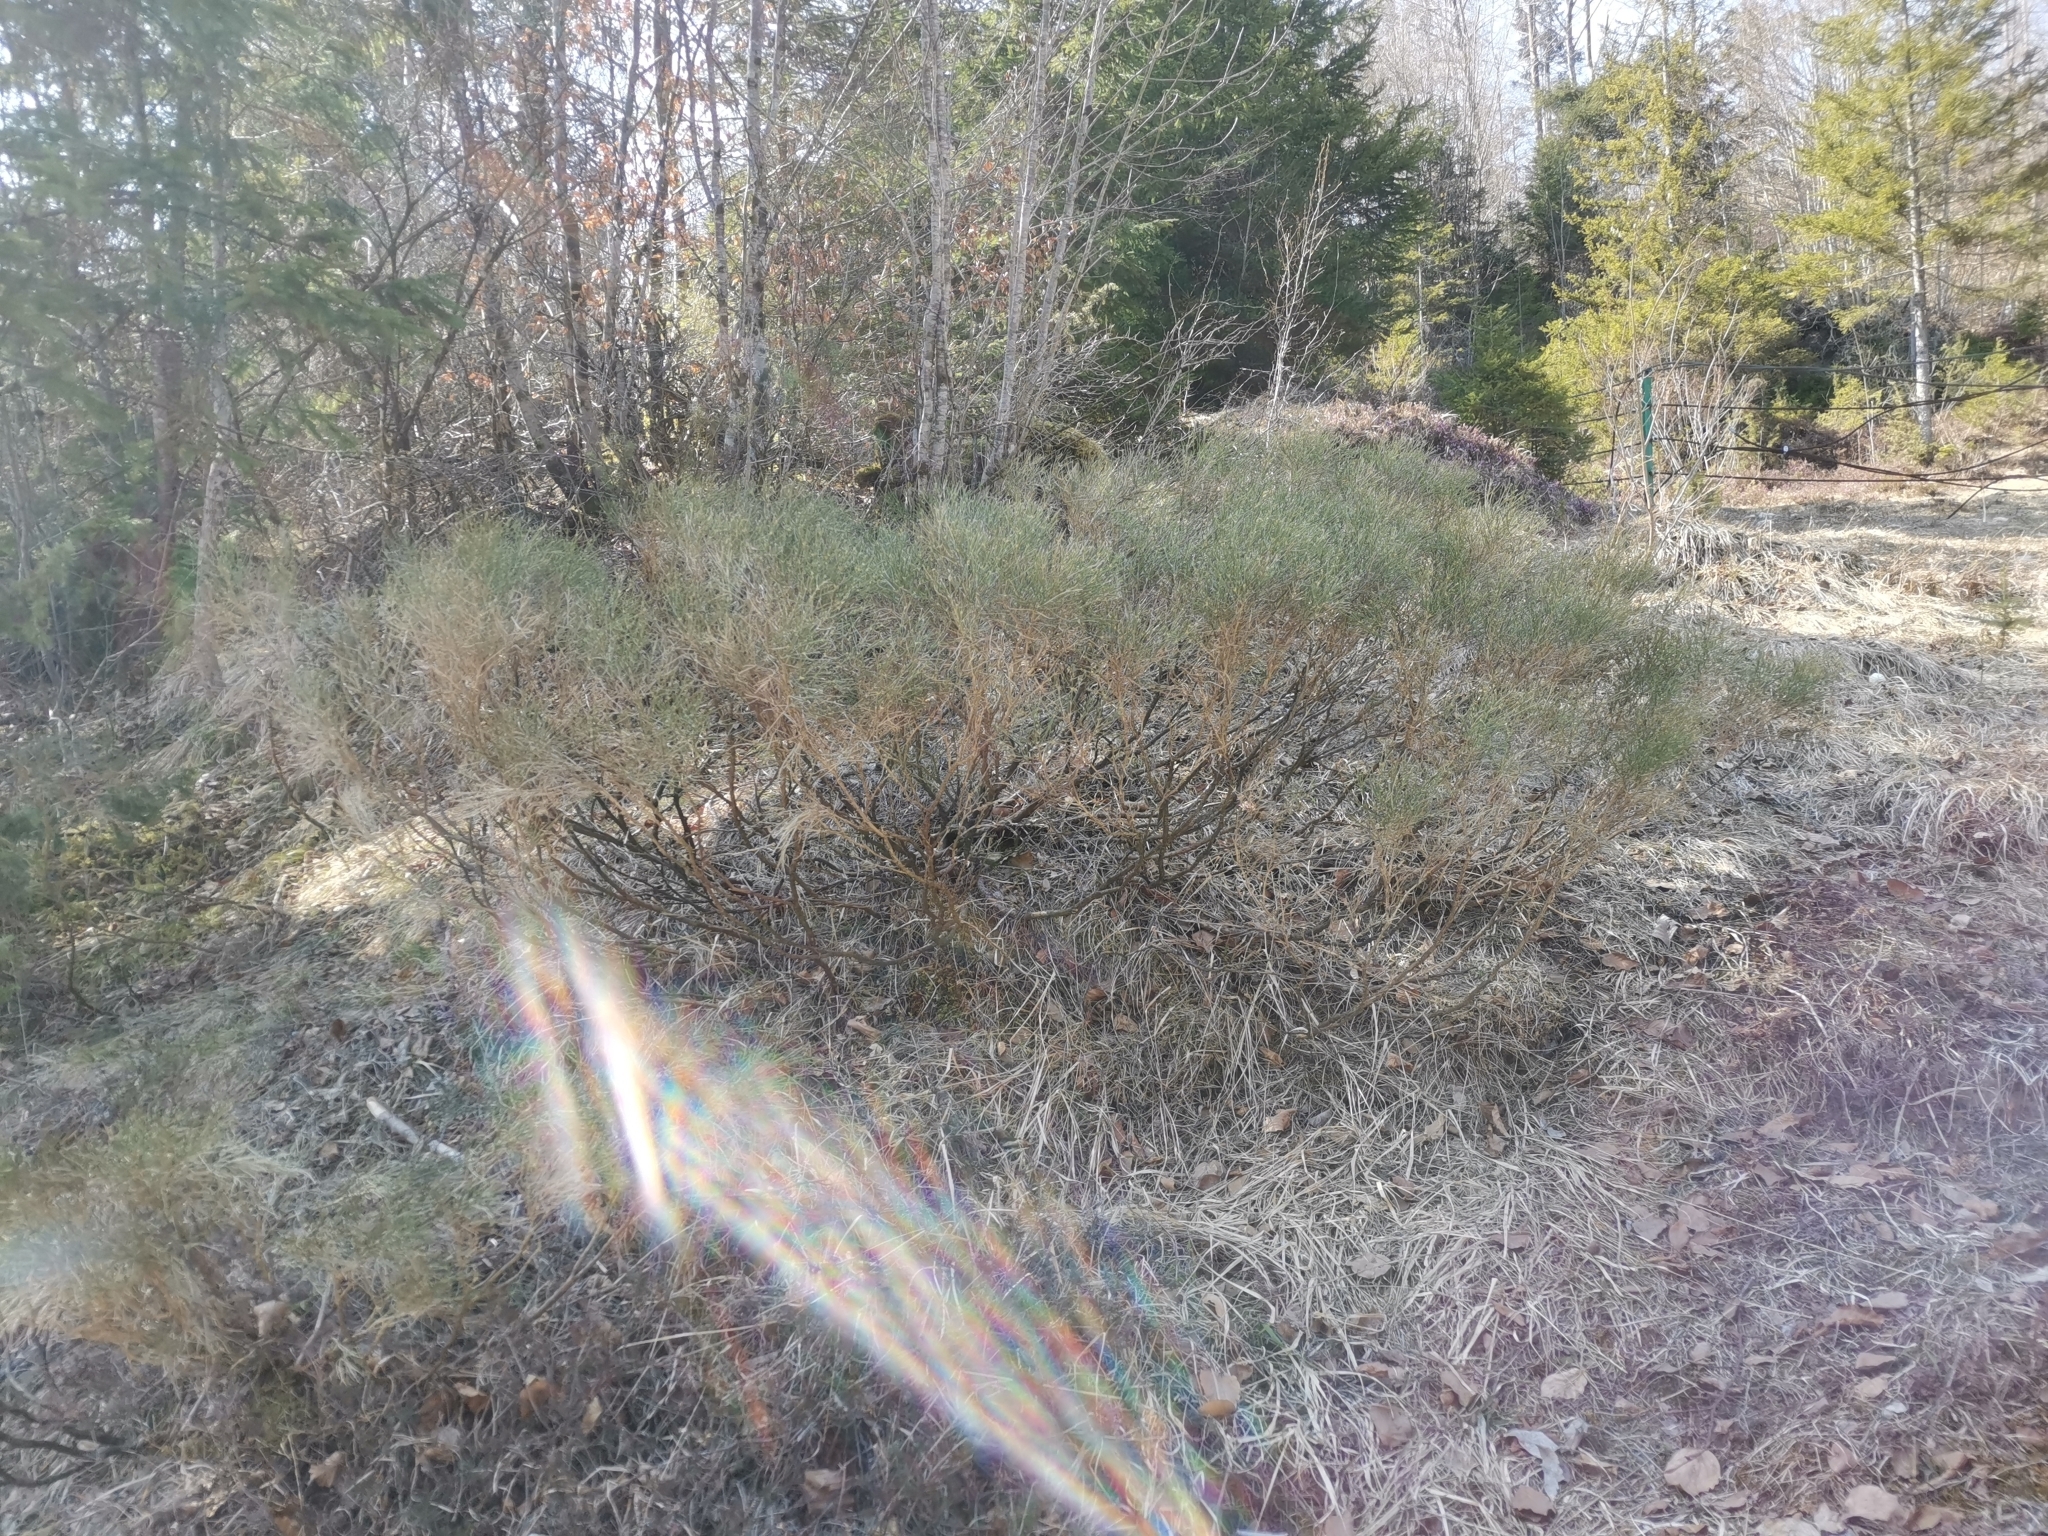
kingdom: Plantae
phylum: Tracheophyta
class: Magnoliopsida
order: Fabales
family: Fabaceae
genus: Genista
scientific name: Genista radiata
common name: Southern greenweed
